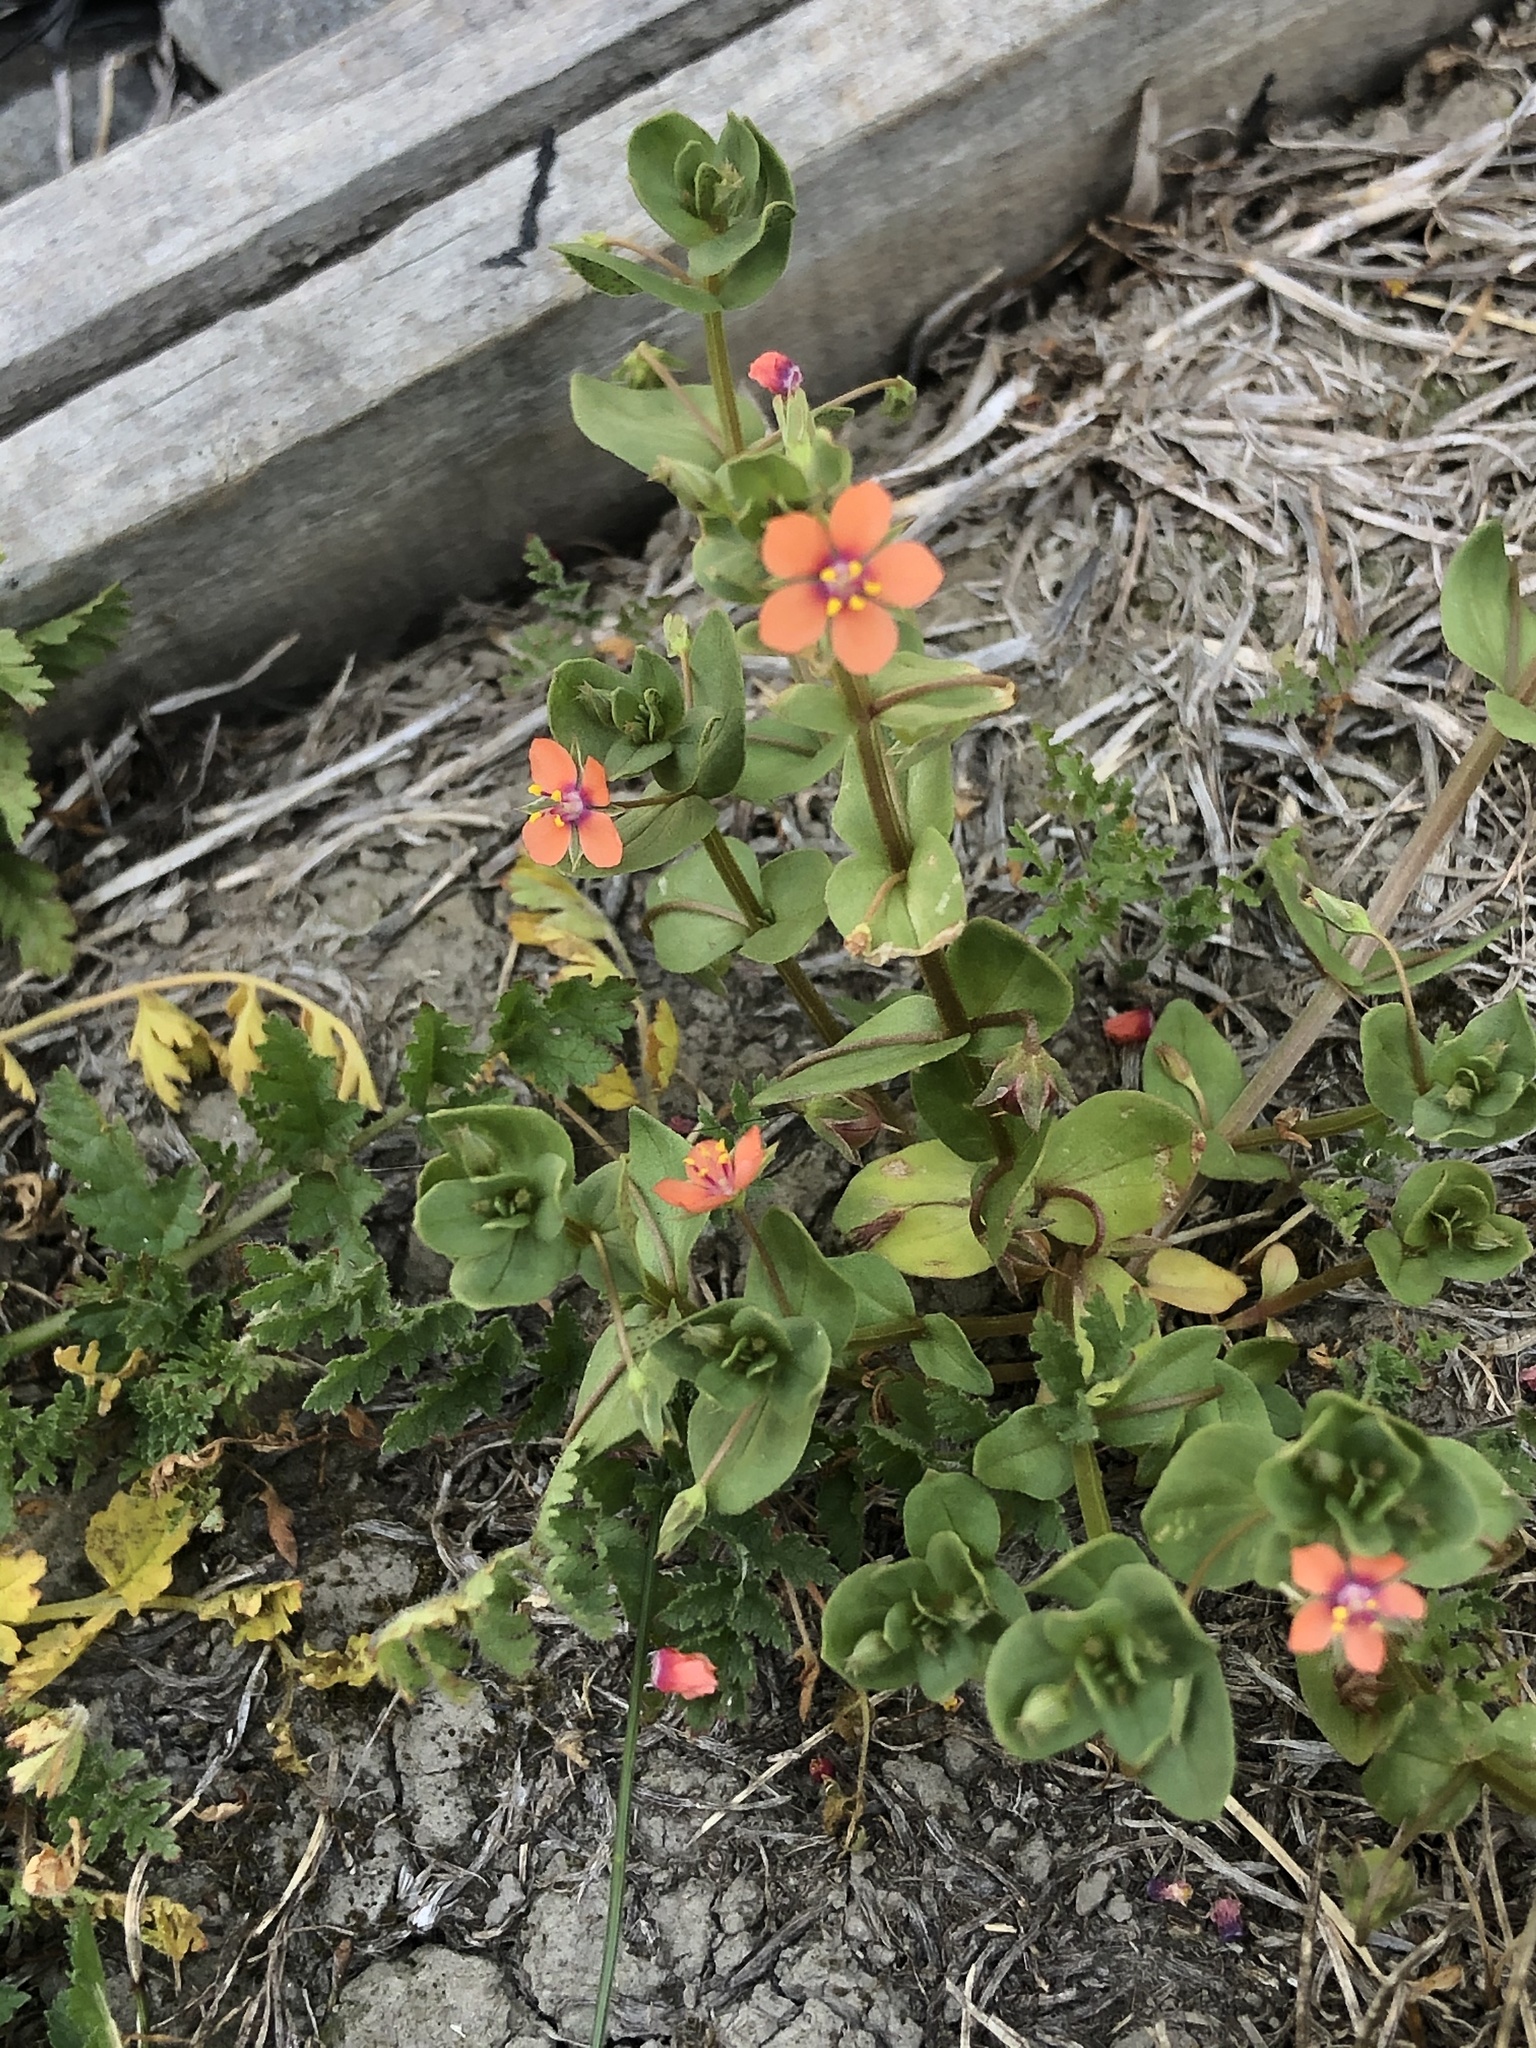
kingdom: Plantae
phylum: Tracheophyta
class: Magnoliopsida
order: Ericales
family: Primulaceae
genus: Lysimachia
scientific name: Lysimachia arvensis
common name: Scarlet pimpernel
